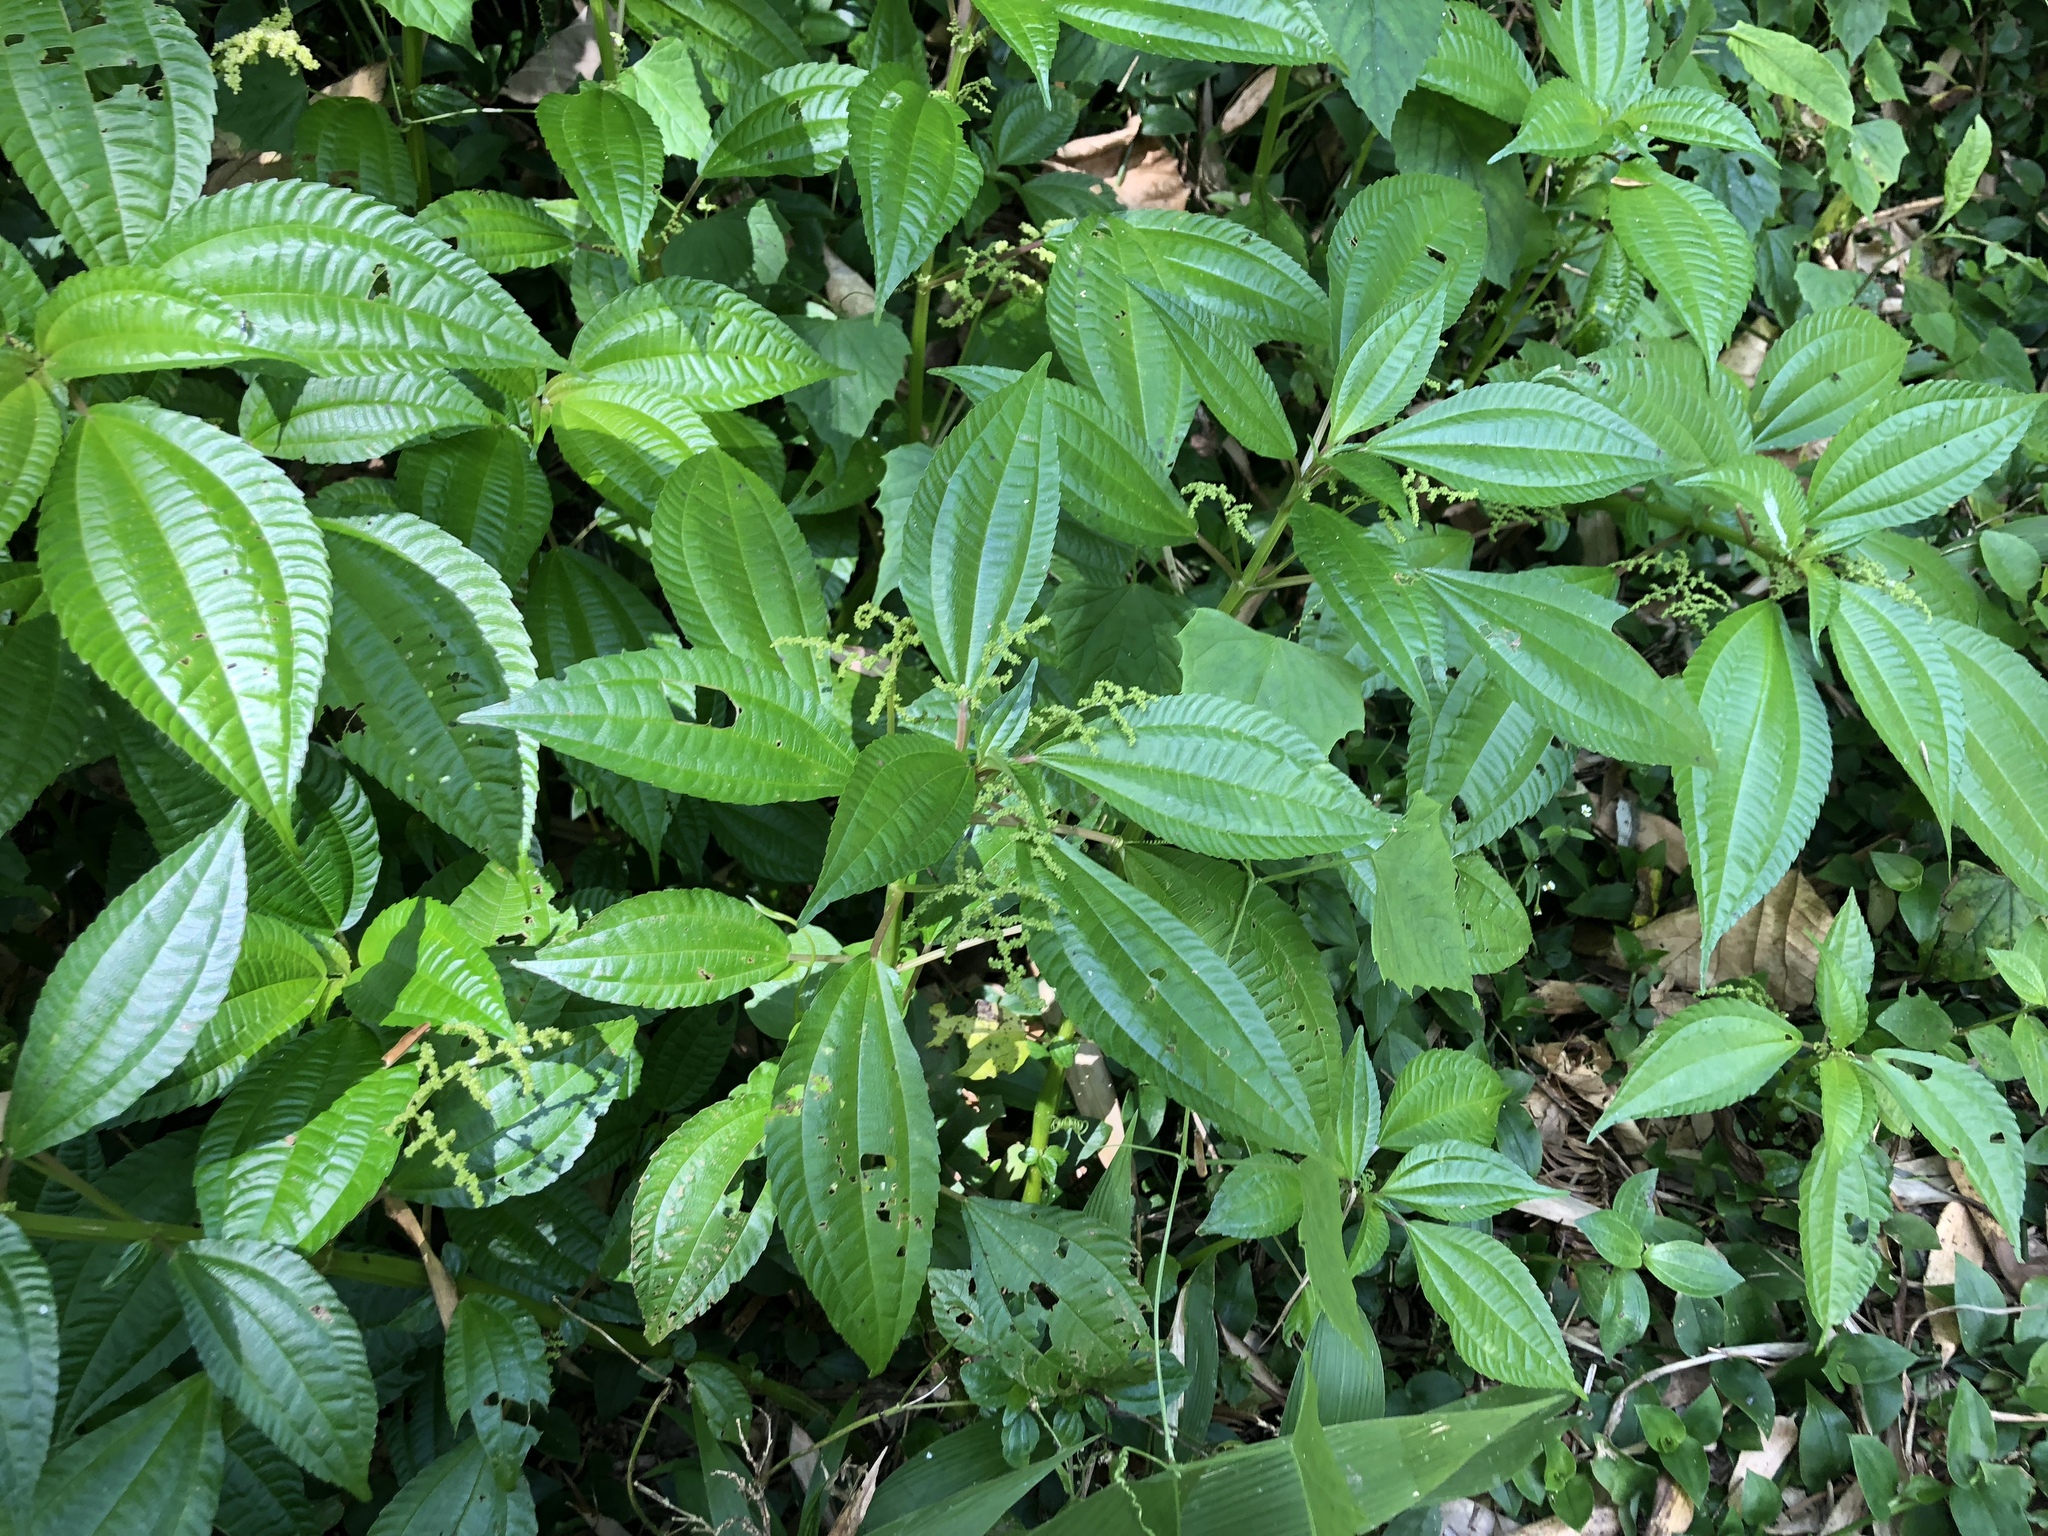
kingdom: Plantae
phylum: Tracheophyta
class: Magnoliopsida
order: Rosales
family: Urticaceae
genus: Pilea
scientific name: Pilea melastomoides
